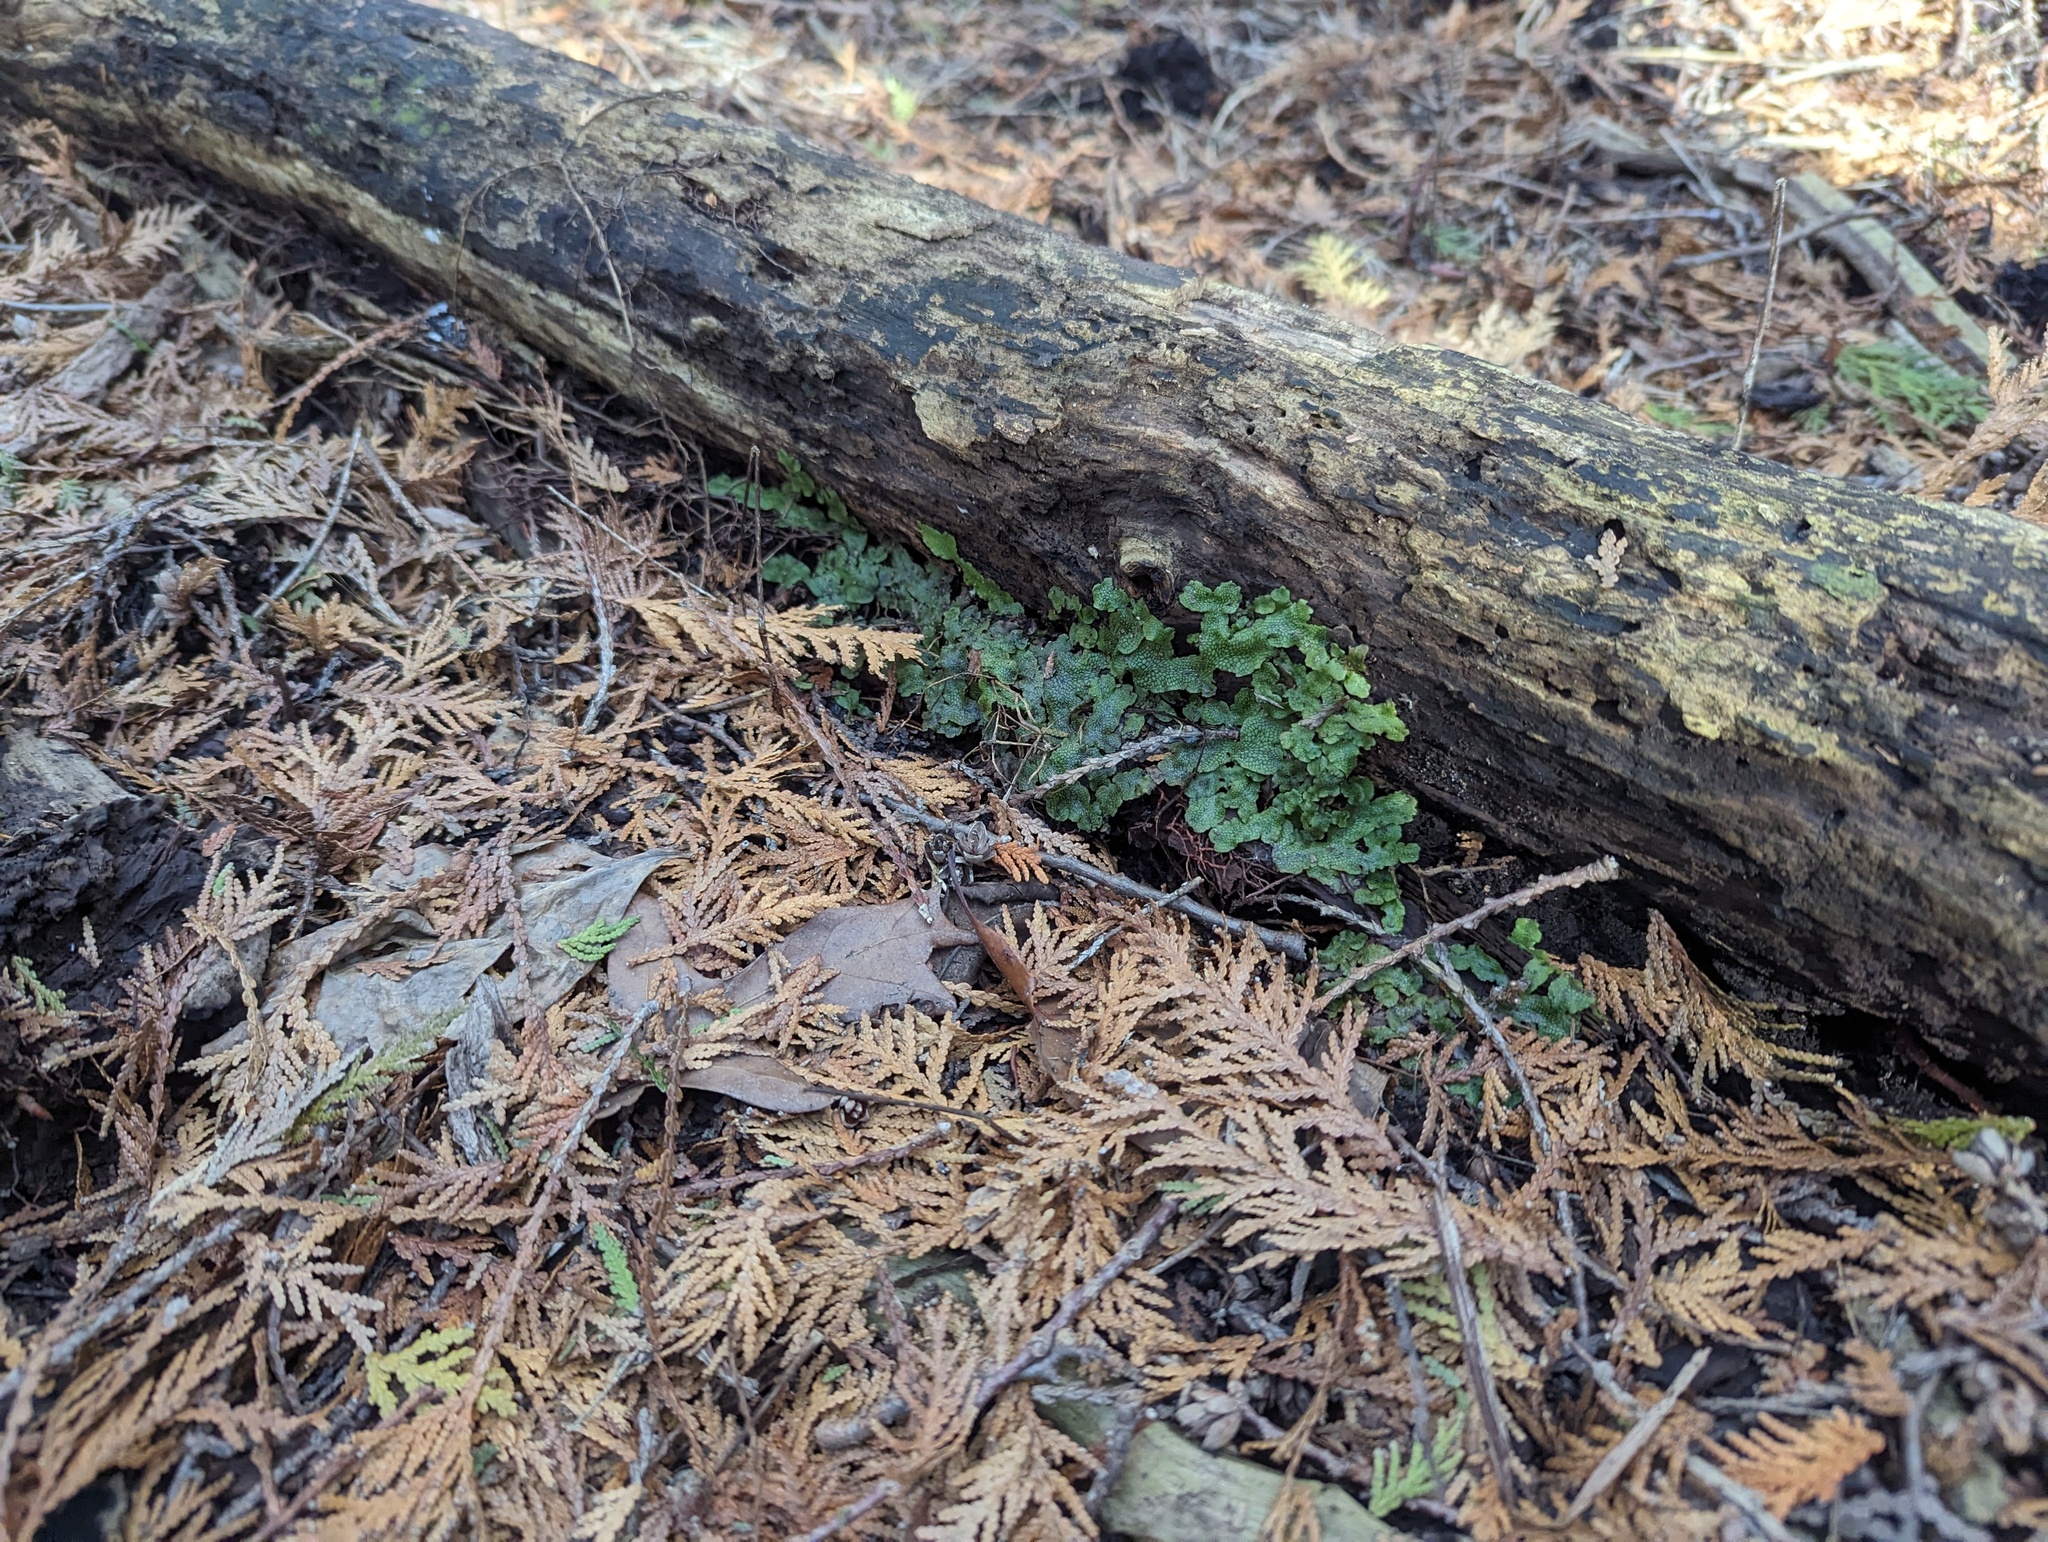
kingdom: Plantae
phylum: Marchantiophyta
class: Marchantiopsida
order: Marchantiales
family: Conocephalaceae
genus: Conocephalum
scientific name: Conocephalum salebrosum
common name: Cat-tongue liverwort
